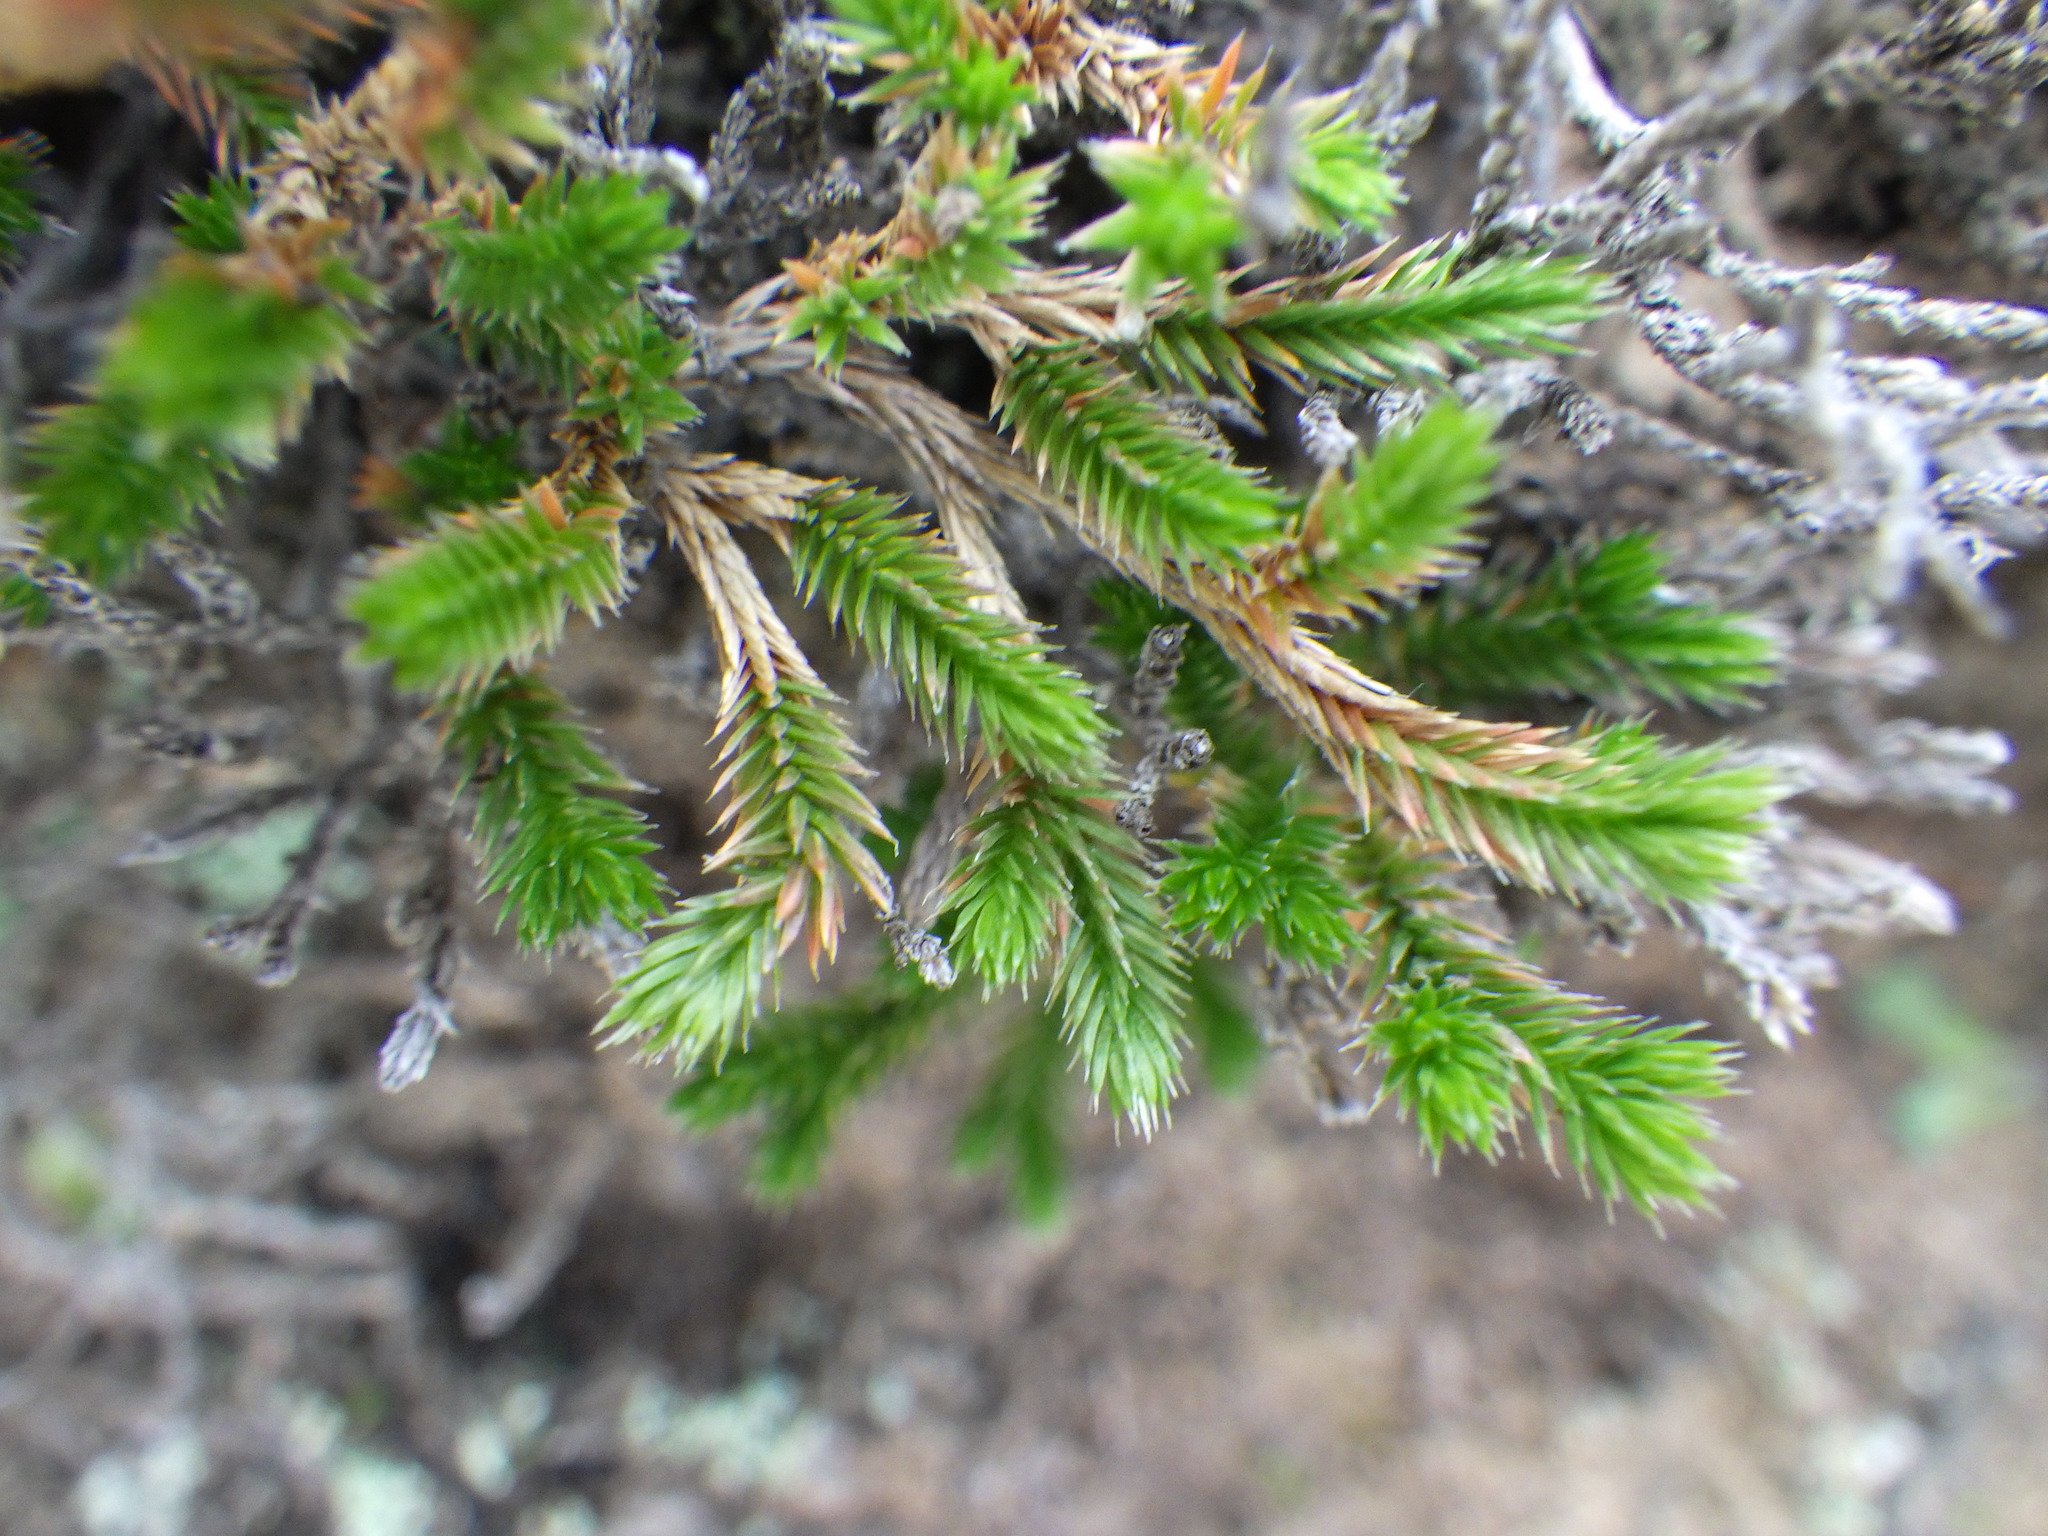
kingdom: Plantae
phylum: Tracheophyta
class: Lycopodiopsida
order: Selaginellales
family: Selaginellaceae
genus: Selaginella
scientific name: Selaginella bigelovii
